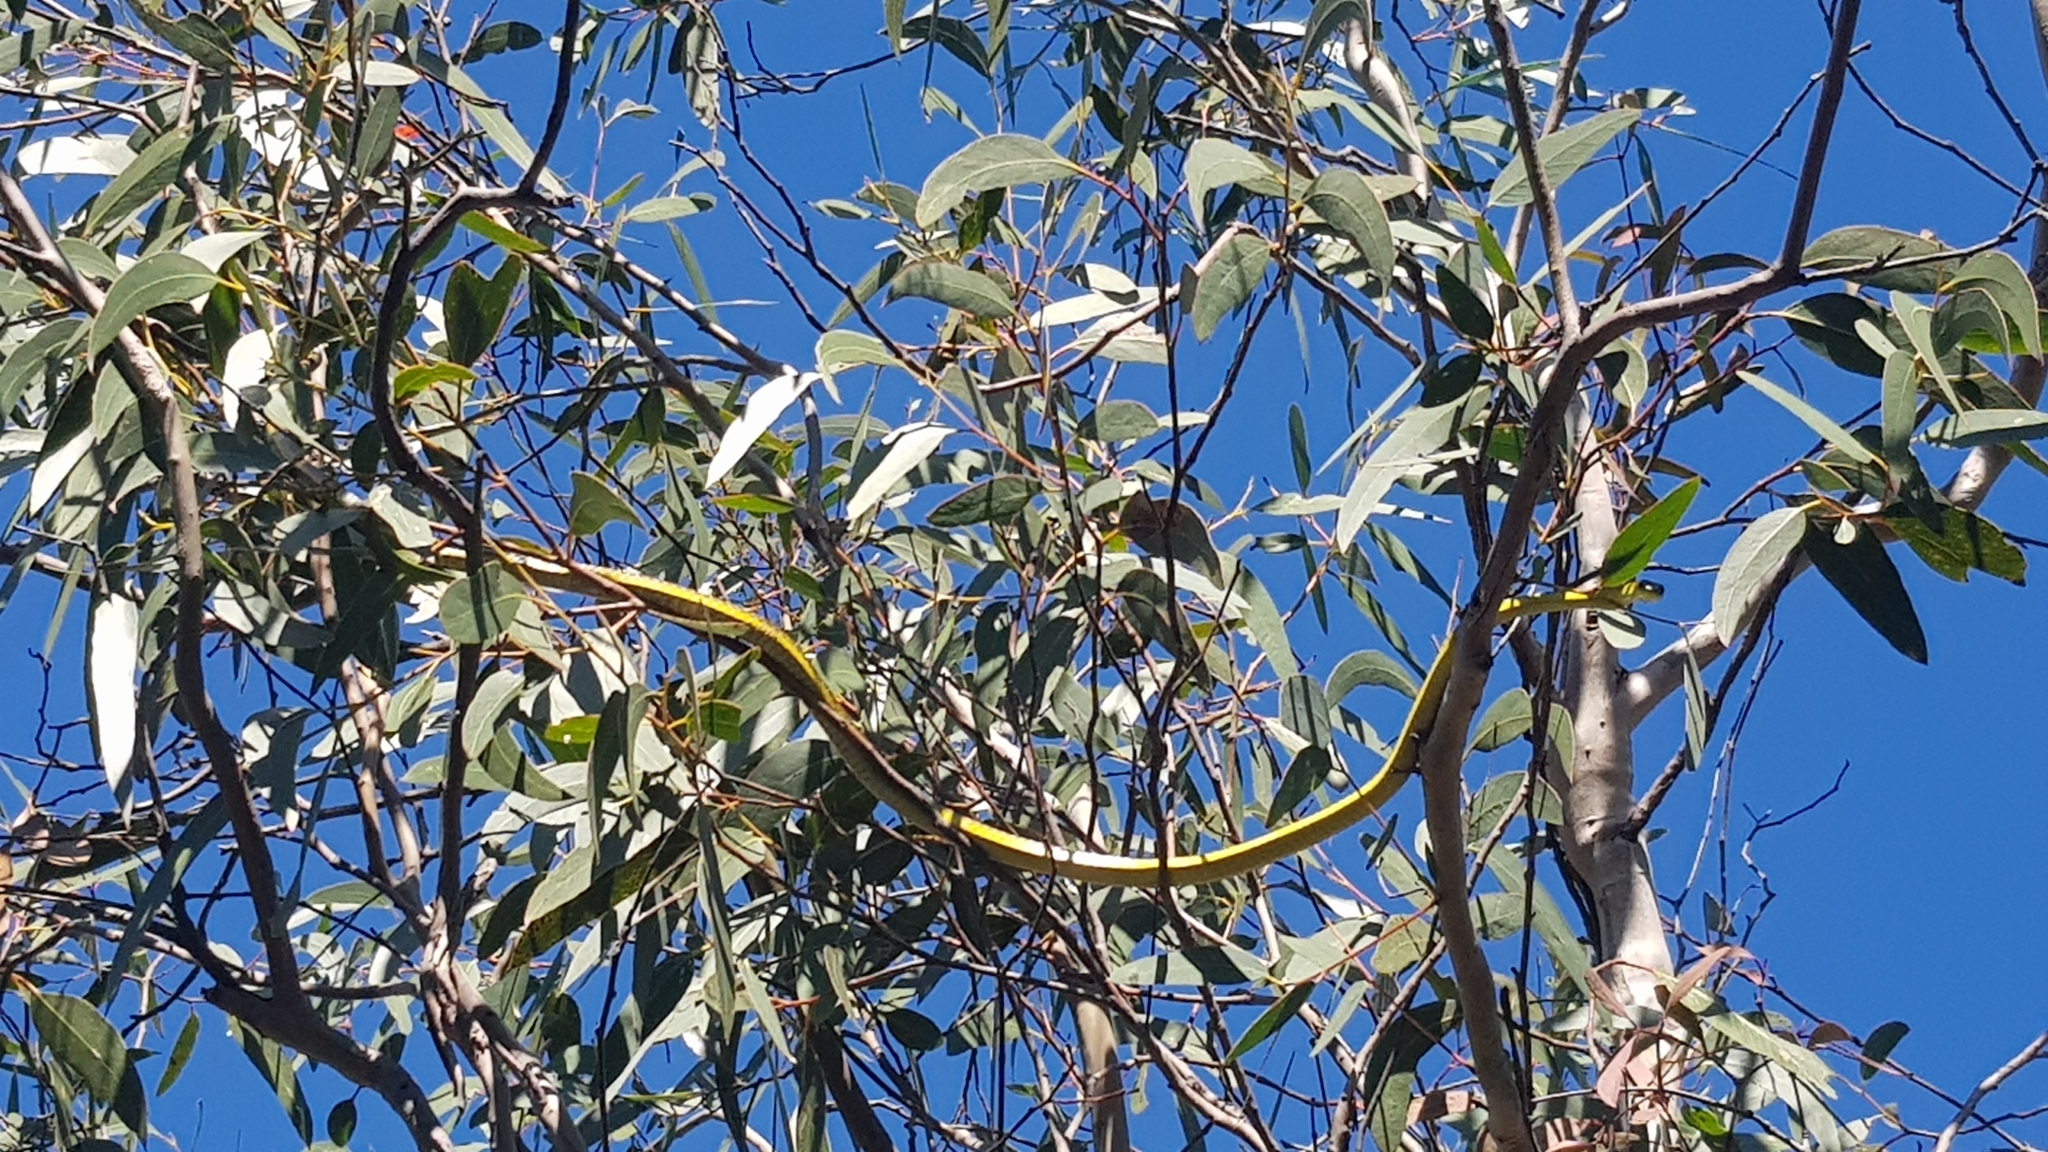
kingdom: Animalia
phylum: Chordata
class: Squamata
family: Colubridae
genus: Dendrelaphis
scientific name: Dendrelaphis punctulatus
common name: Common tree snake
